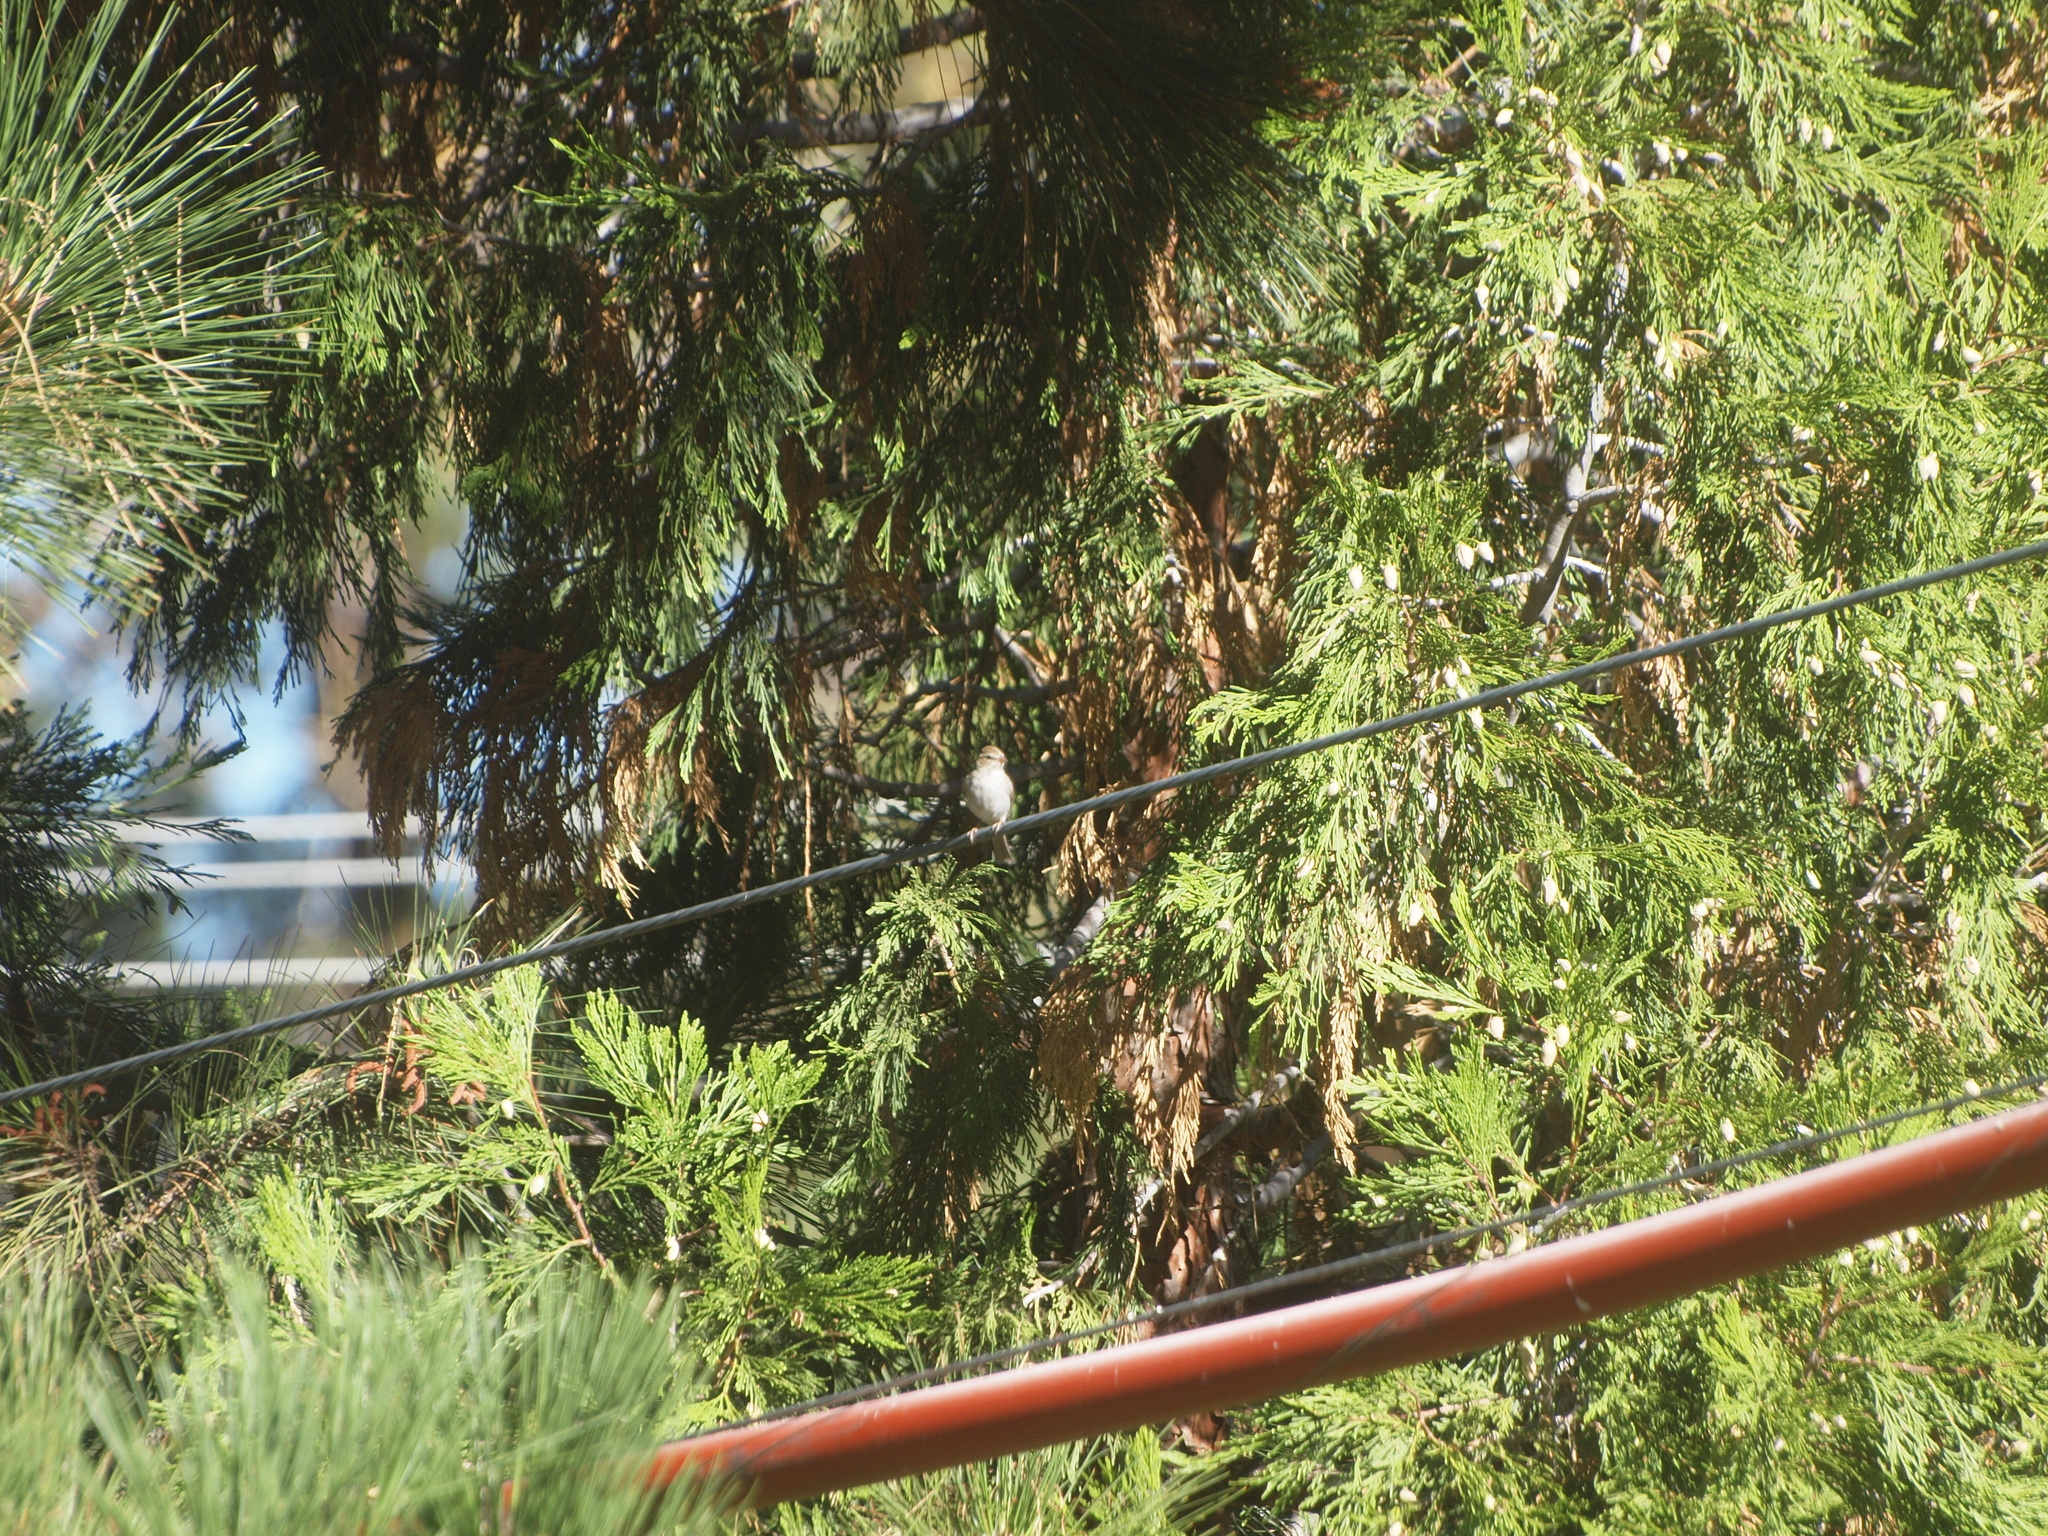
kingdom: Animalia
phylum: Chordata
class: Aves
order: Passeriformes
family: Passerellidae
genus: Spizella
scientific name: Spizella passerina
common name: Chipping sparrow
